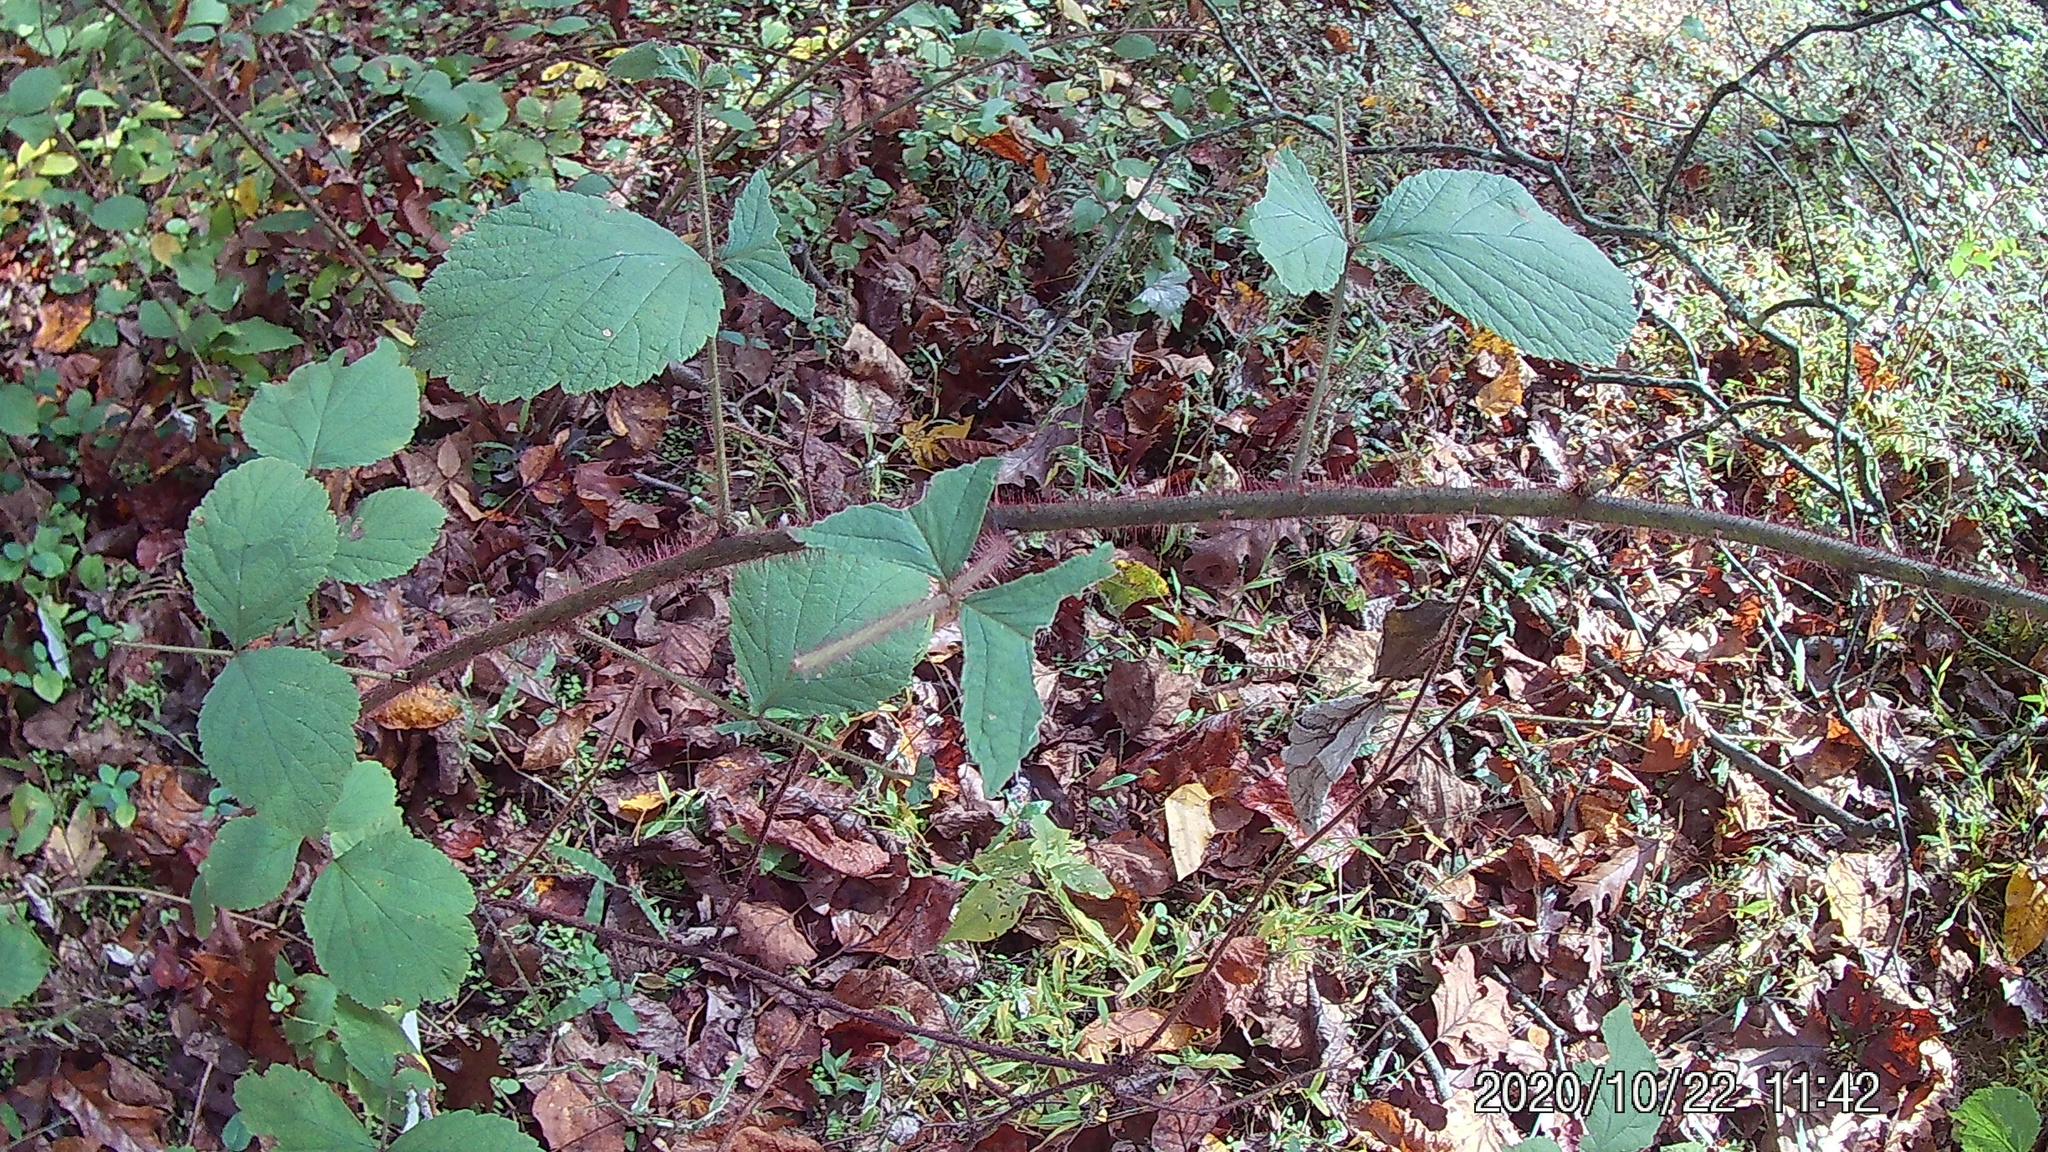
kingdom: Plantae
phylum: Tracheophyta
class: Magnoliopsida
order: Rosales
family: Rosaceae
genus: Rubus
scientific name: Rubus phoenicolasius
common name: Japanese wineberry
